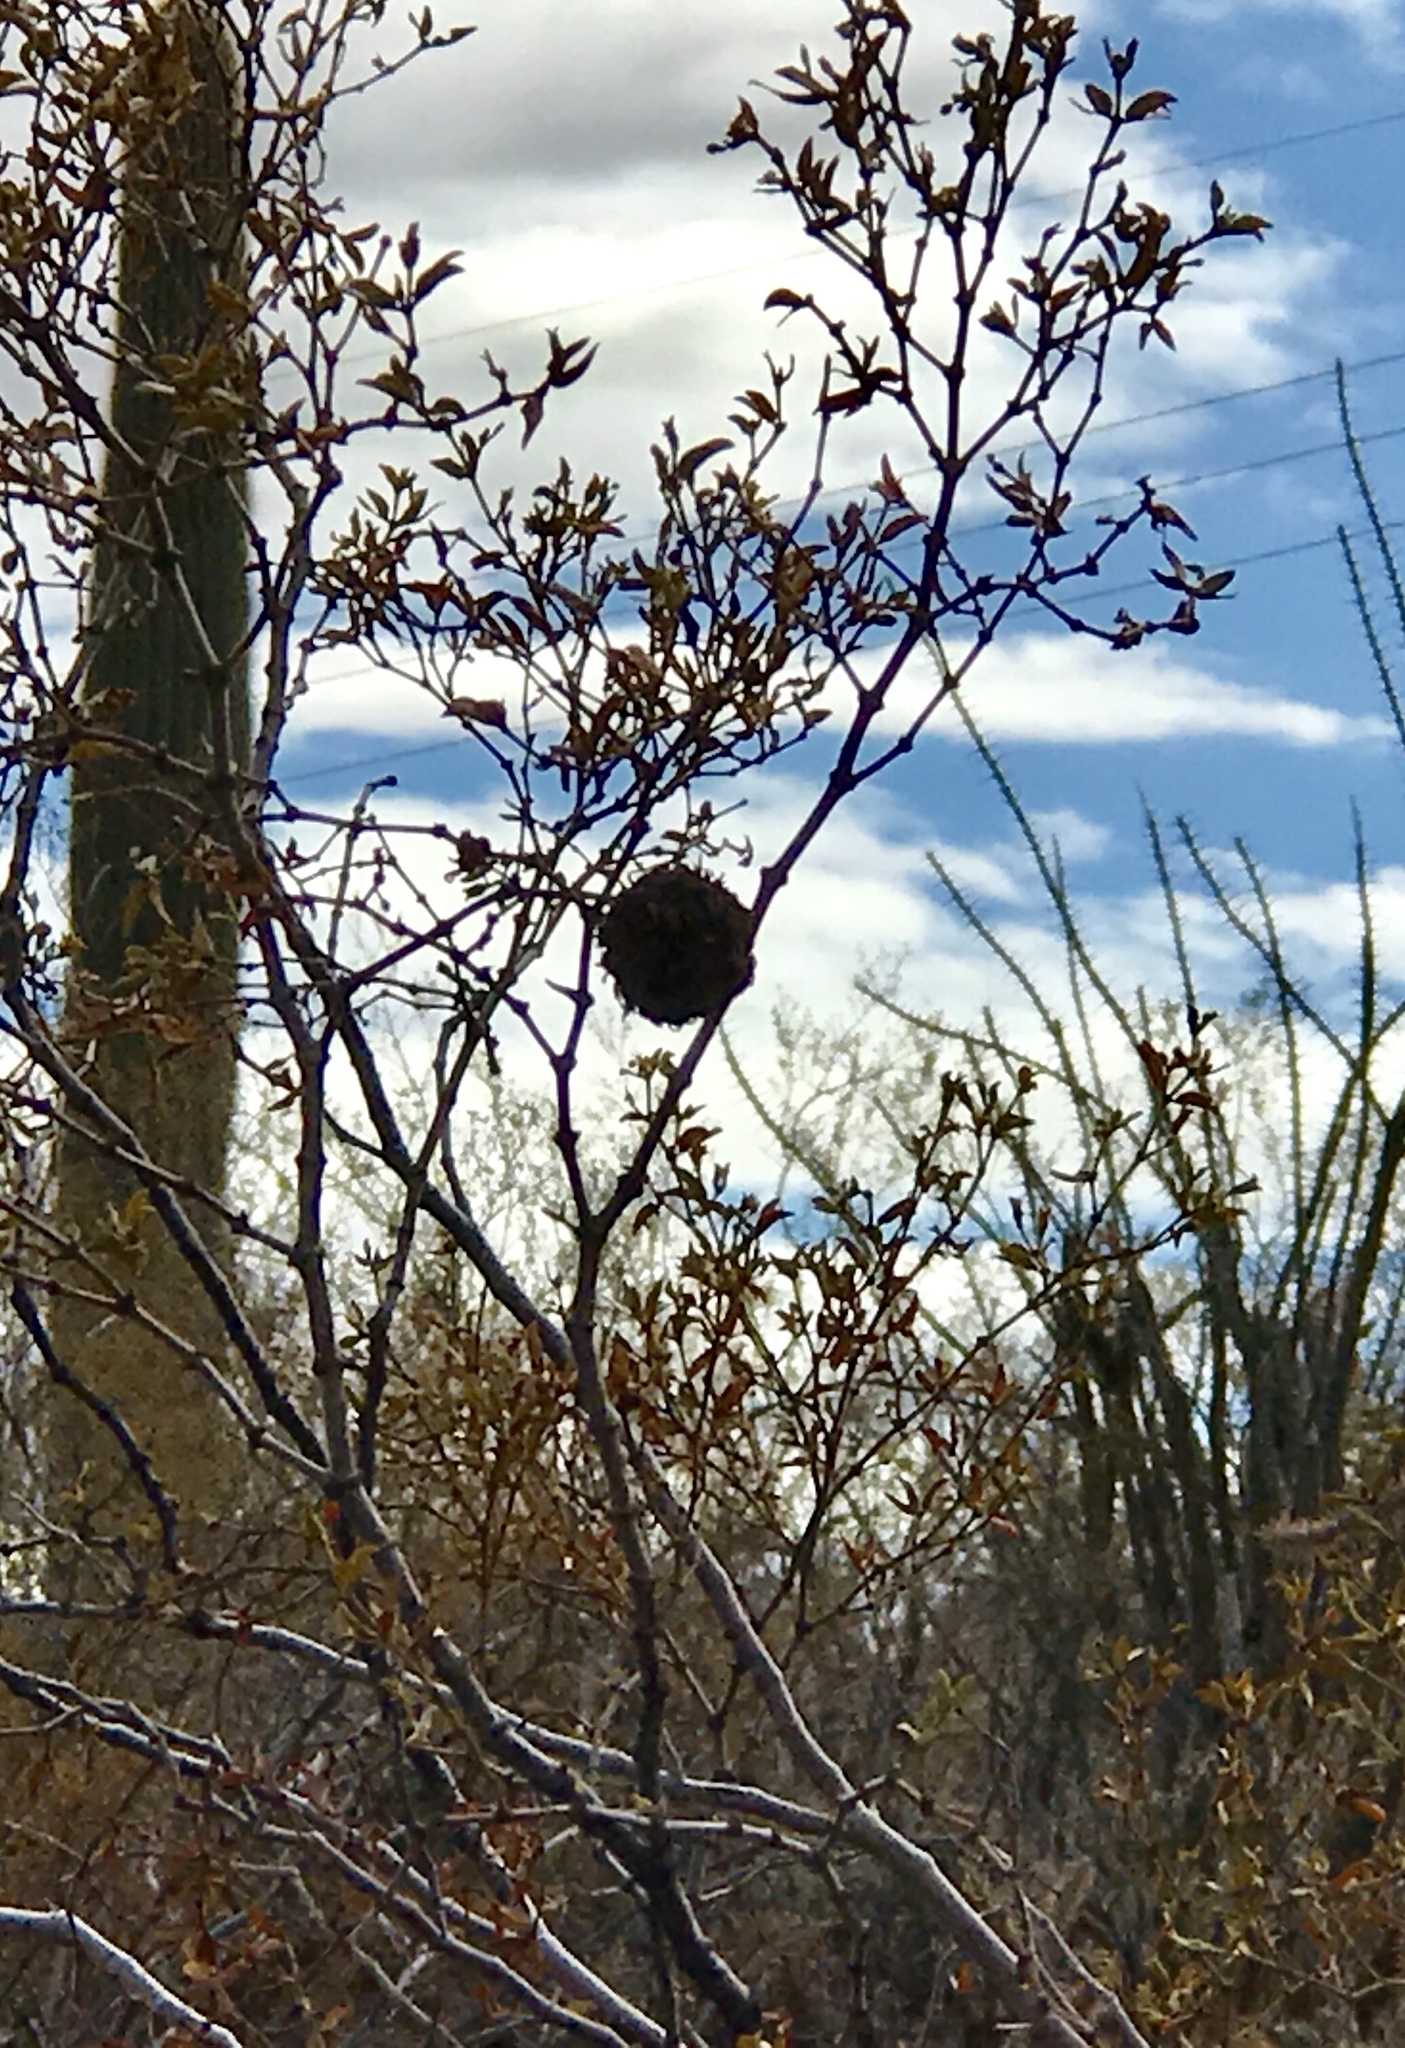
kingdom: Animalia
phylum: Arthropoda
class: Insecta
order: Diptera
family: Cecidomyiidae
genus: Asphondylia
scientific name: Asphondylia auripila
